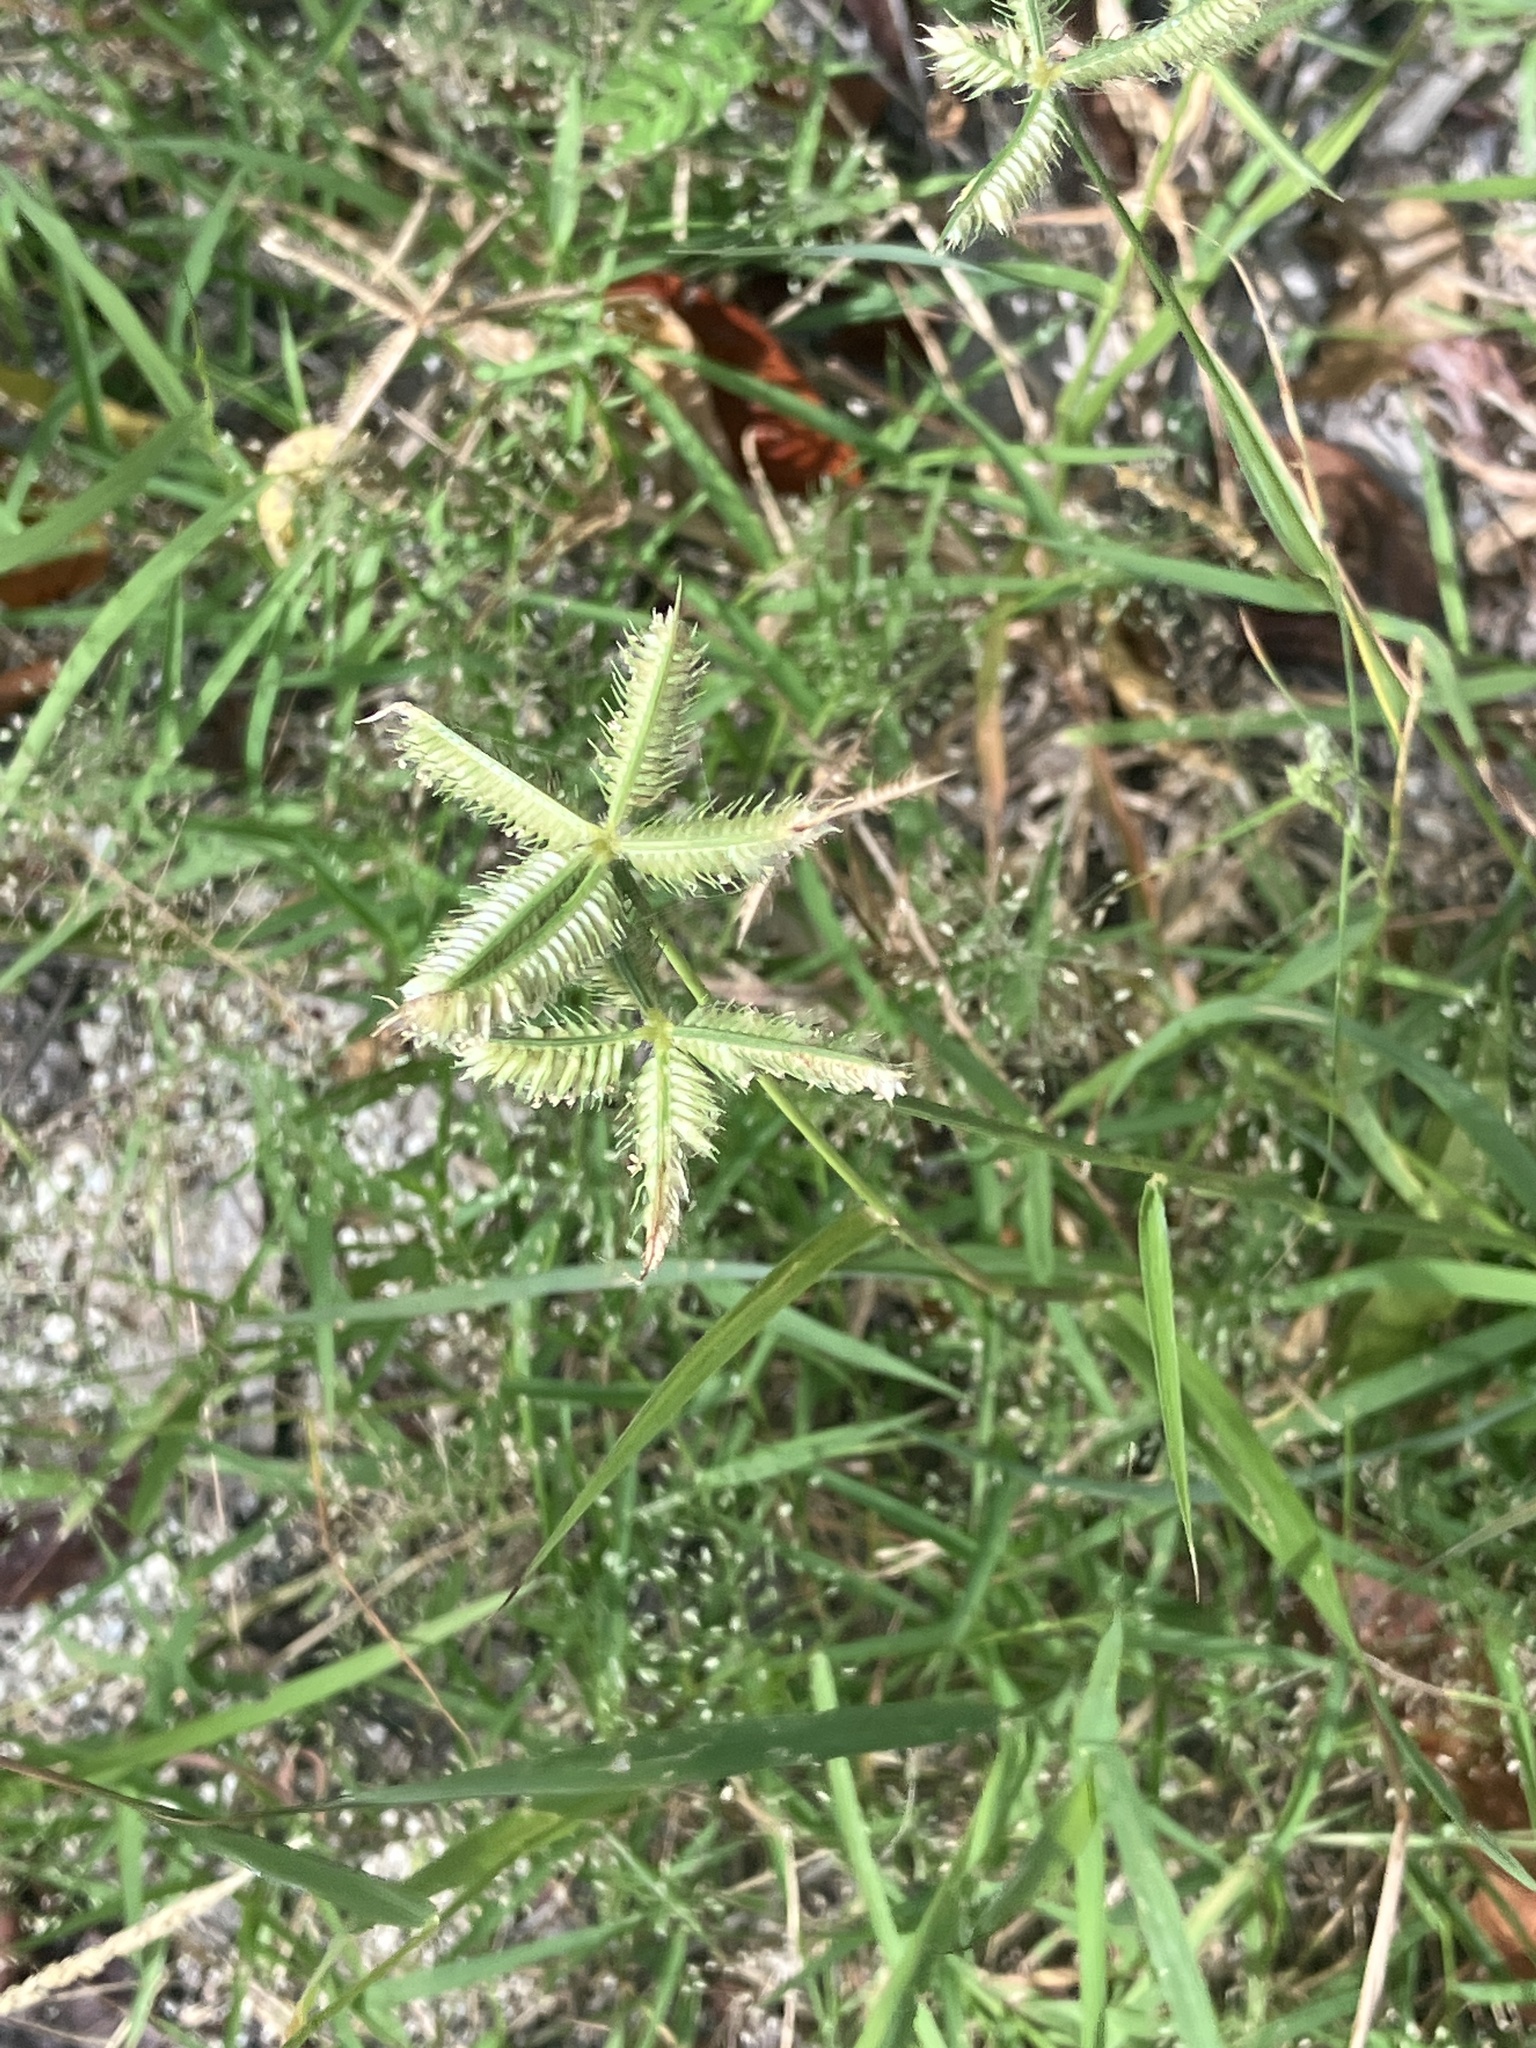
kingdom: Plantae
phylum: Tracheophyta
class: Liliopsida
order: Poales
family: Poaceae
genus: Dactyloctenium
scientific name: Dactyloctenium aegyptium
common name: Egyptian grass
